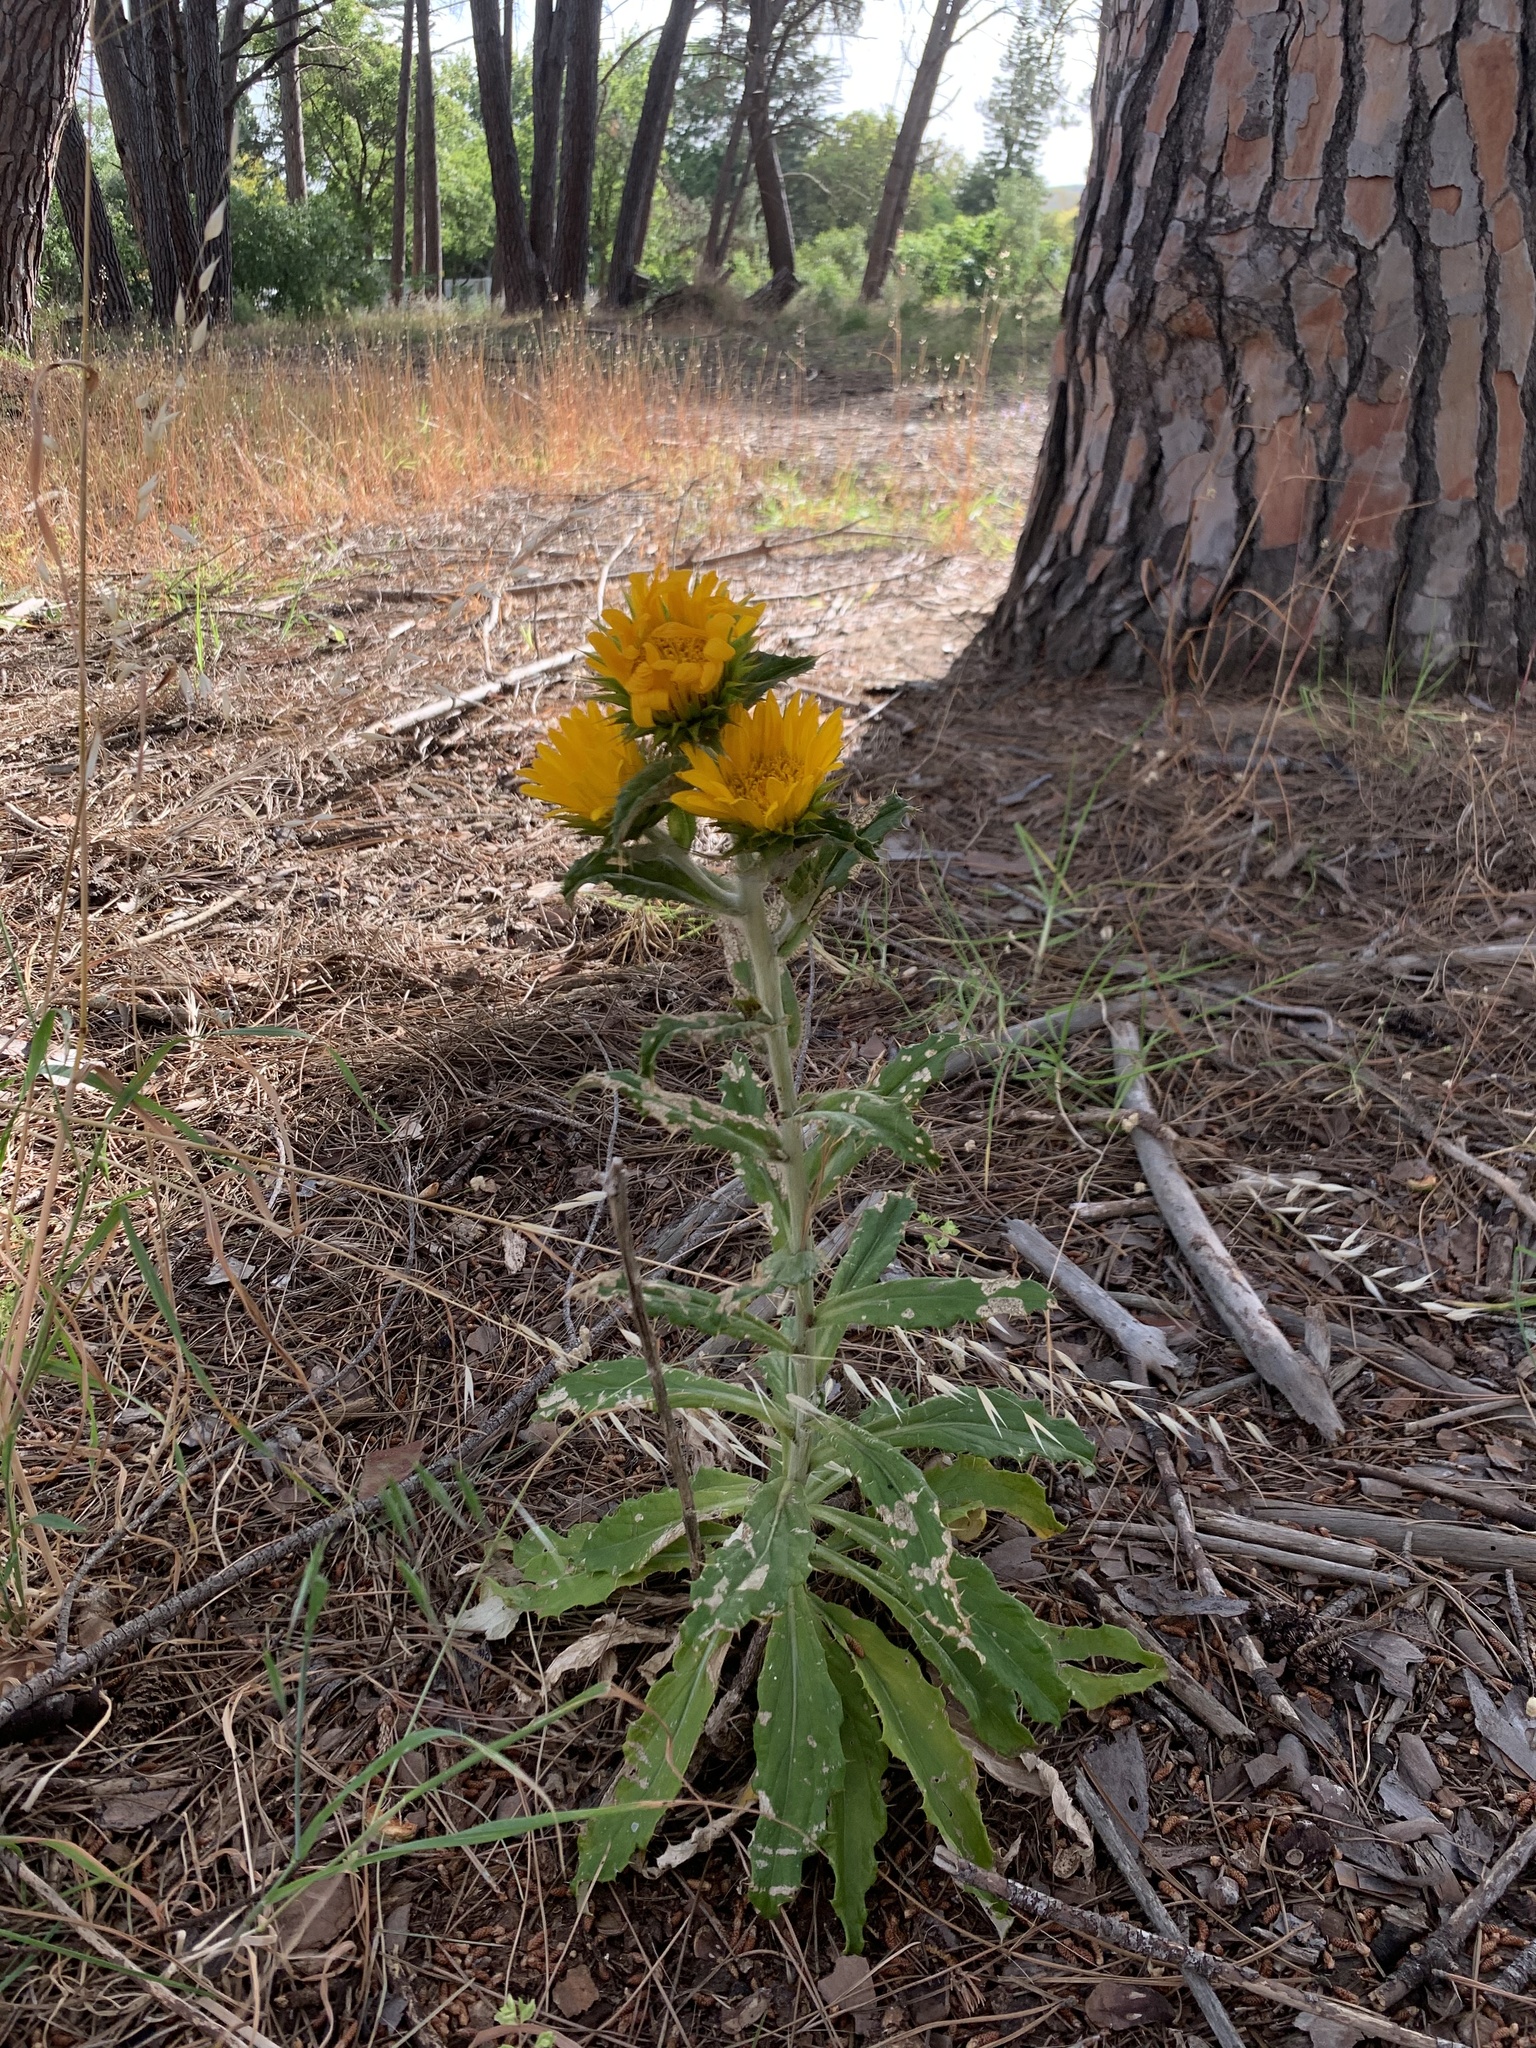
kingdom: Plantae
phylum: Tracheophyta
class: Magnoliopsida
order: Asterales
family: Asteraceae
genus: Berkheya
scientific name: Berkheya armata
